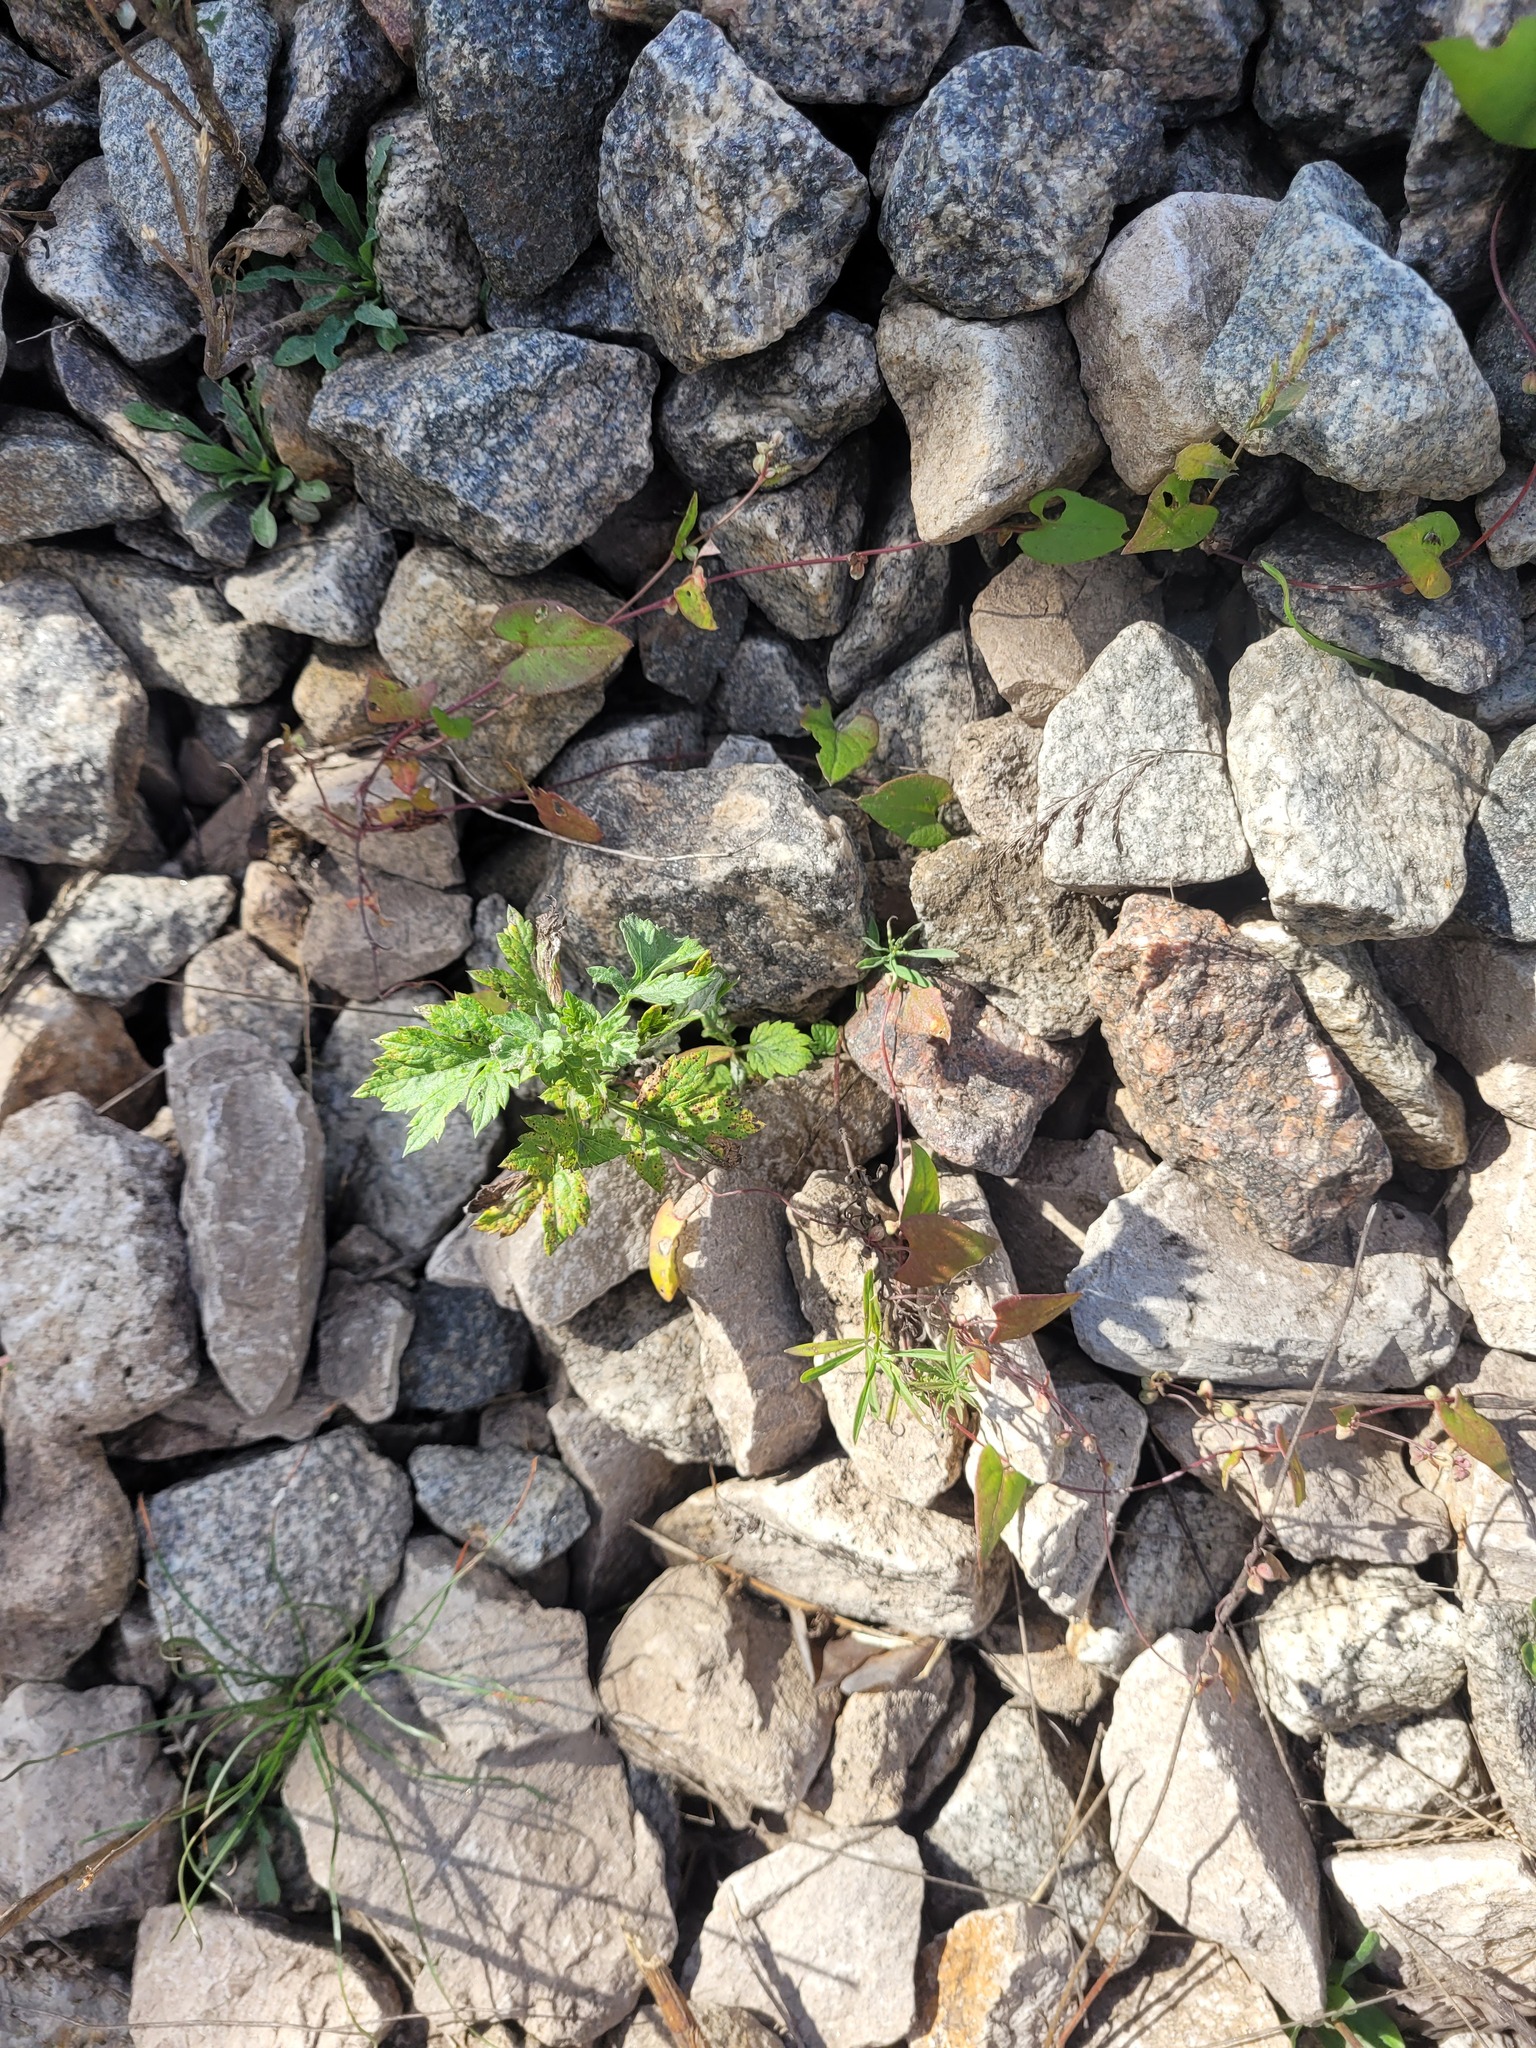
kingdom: Plantae
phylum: Tracheophyta
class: Magnoliopsida
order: Asterales
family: Asteraceae
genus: Artemisia
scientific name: Artemisia vulgaris
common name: Mugwort
